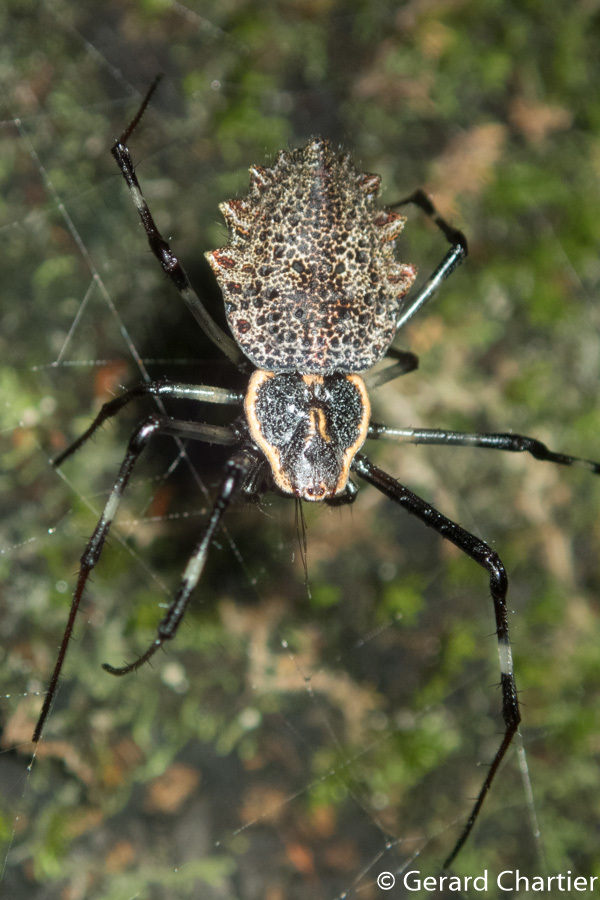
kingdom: Animalia
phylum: Arthropoda
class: Arachnida
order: Araneae
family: Araneidae
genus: Herennia
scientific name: Herennia multipuncta
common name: Spotted coin spider
